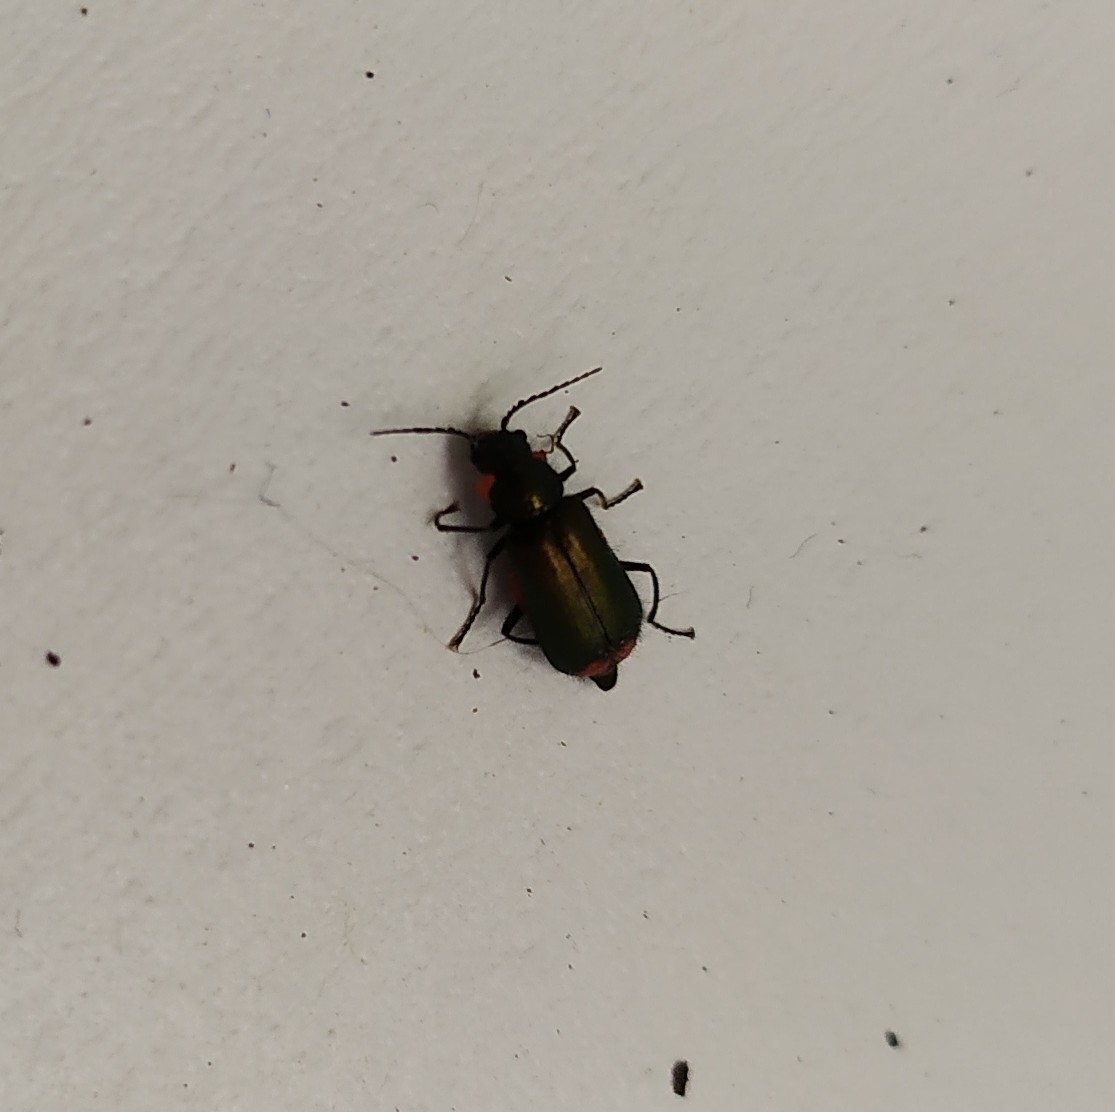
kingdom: Animalia
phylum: Arthropoda
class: Insecta
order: Coleoptera
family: Melyridae
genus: Malachius
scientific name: Malachius bipustulatus
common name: Malachite beetle
